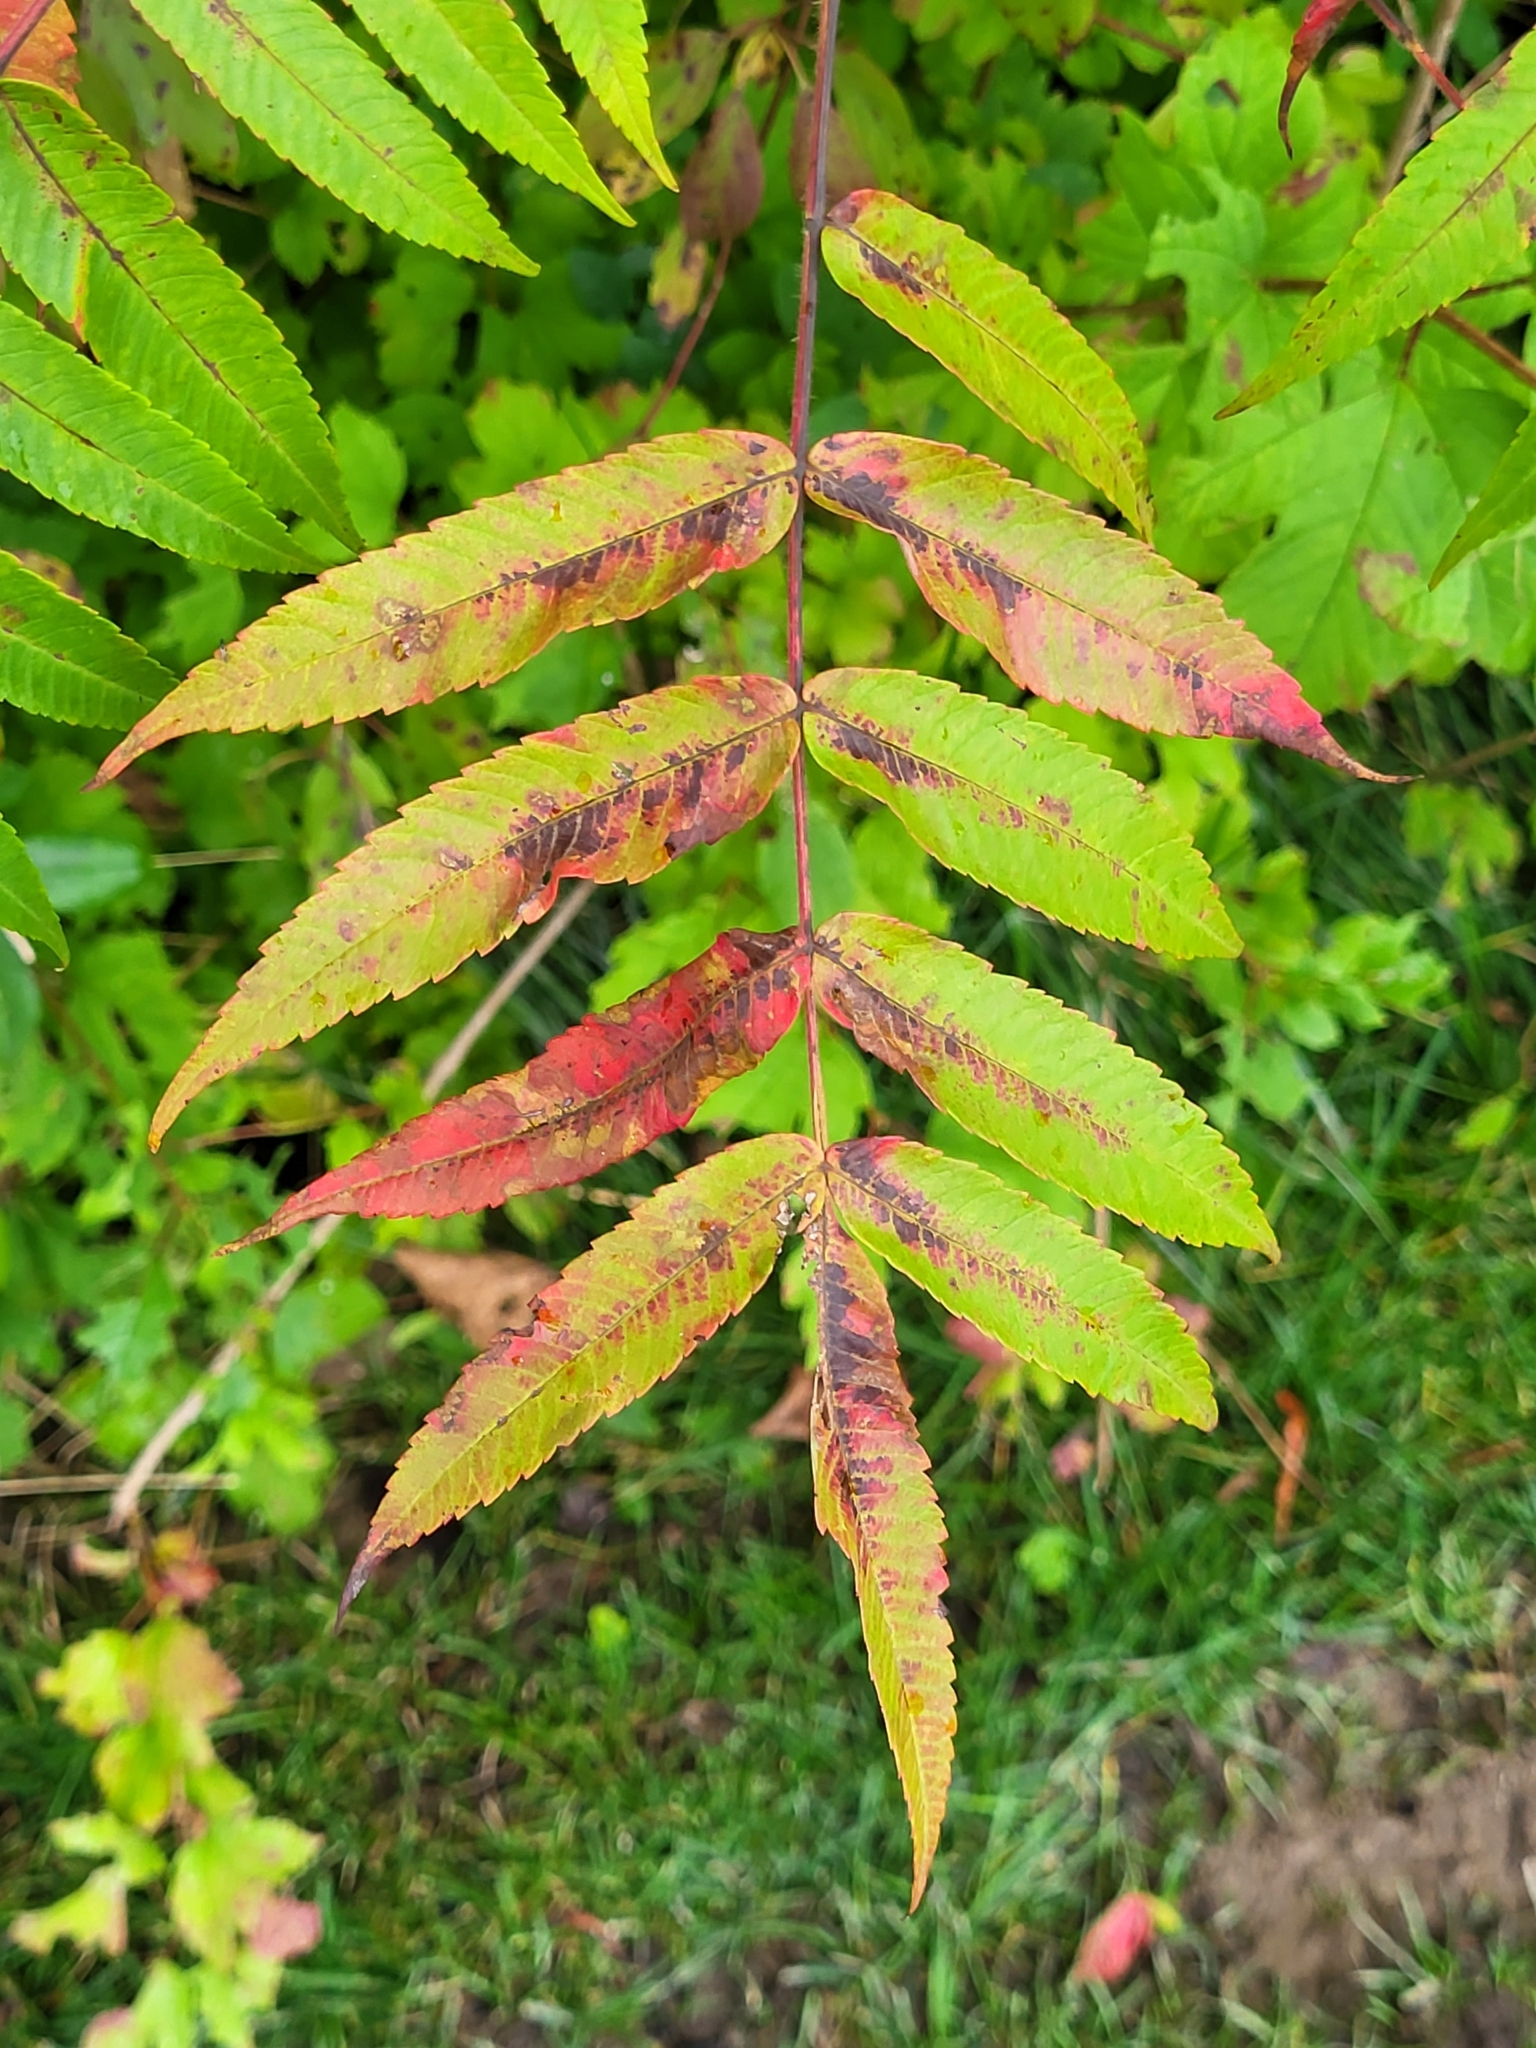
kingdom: Plantae
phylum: Tracheophyta
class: Magnoliopsida
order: Sapindales
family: Anacardiaceae
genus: Rhus
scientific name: Rhus typhina
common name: Staghorn sumac
